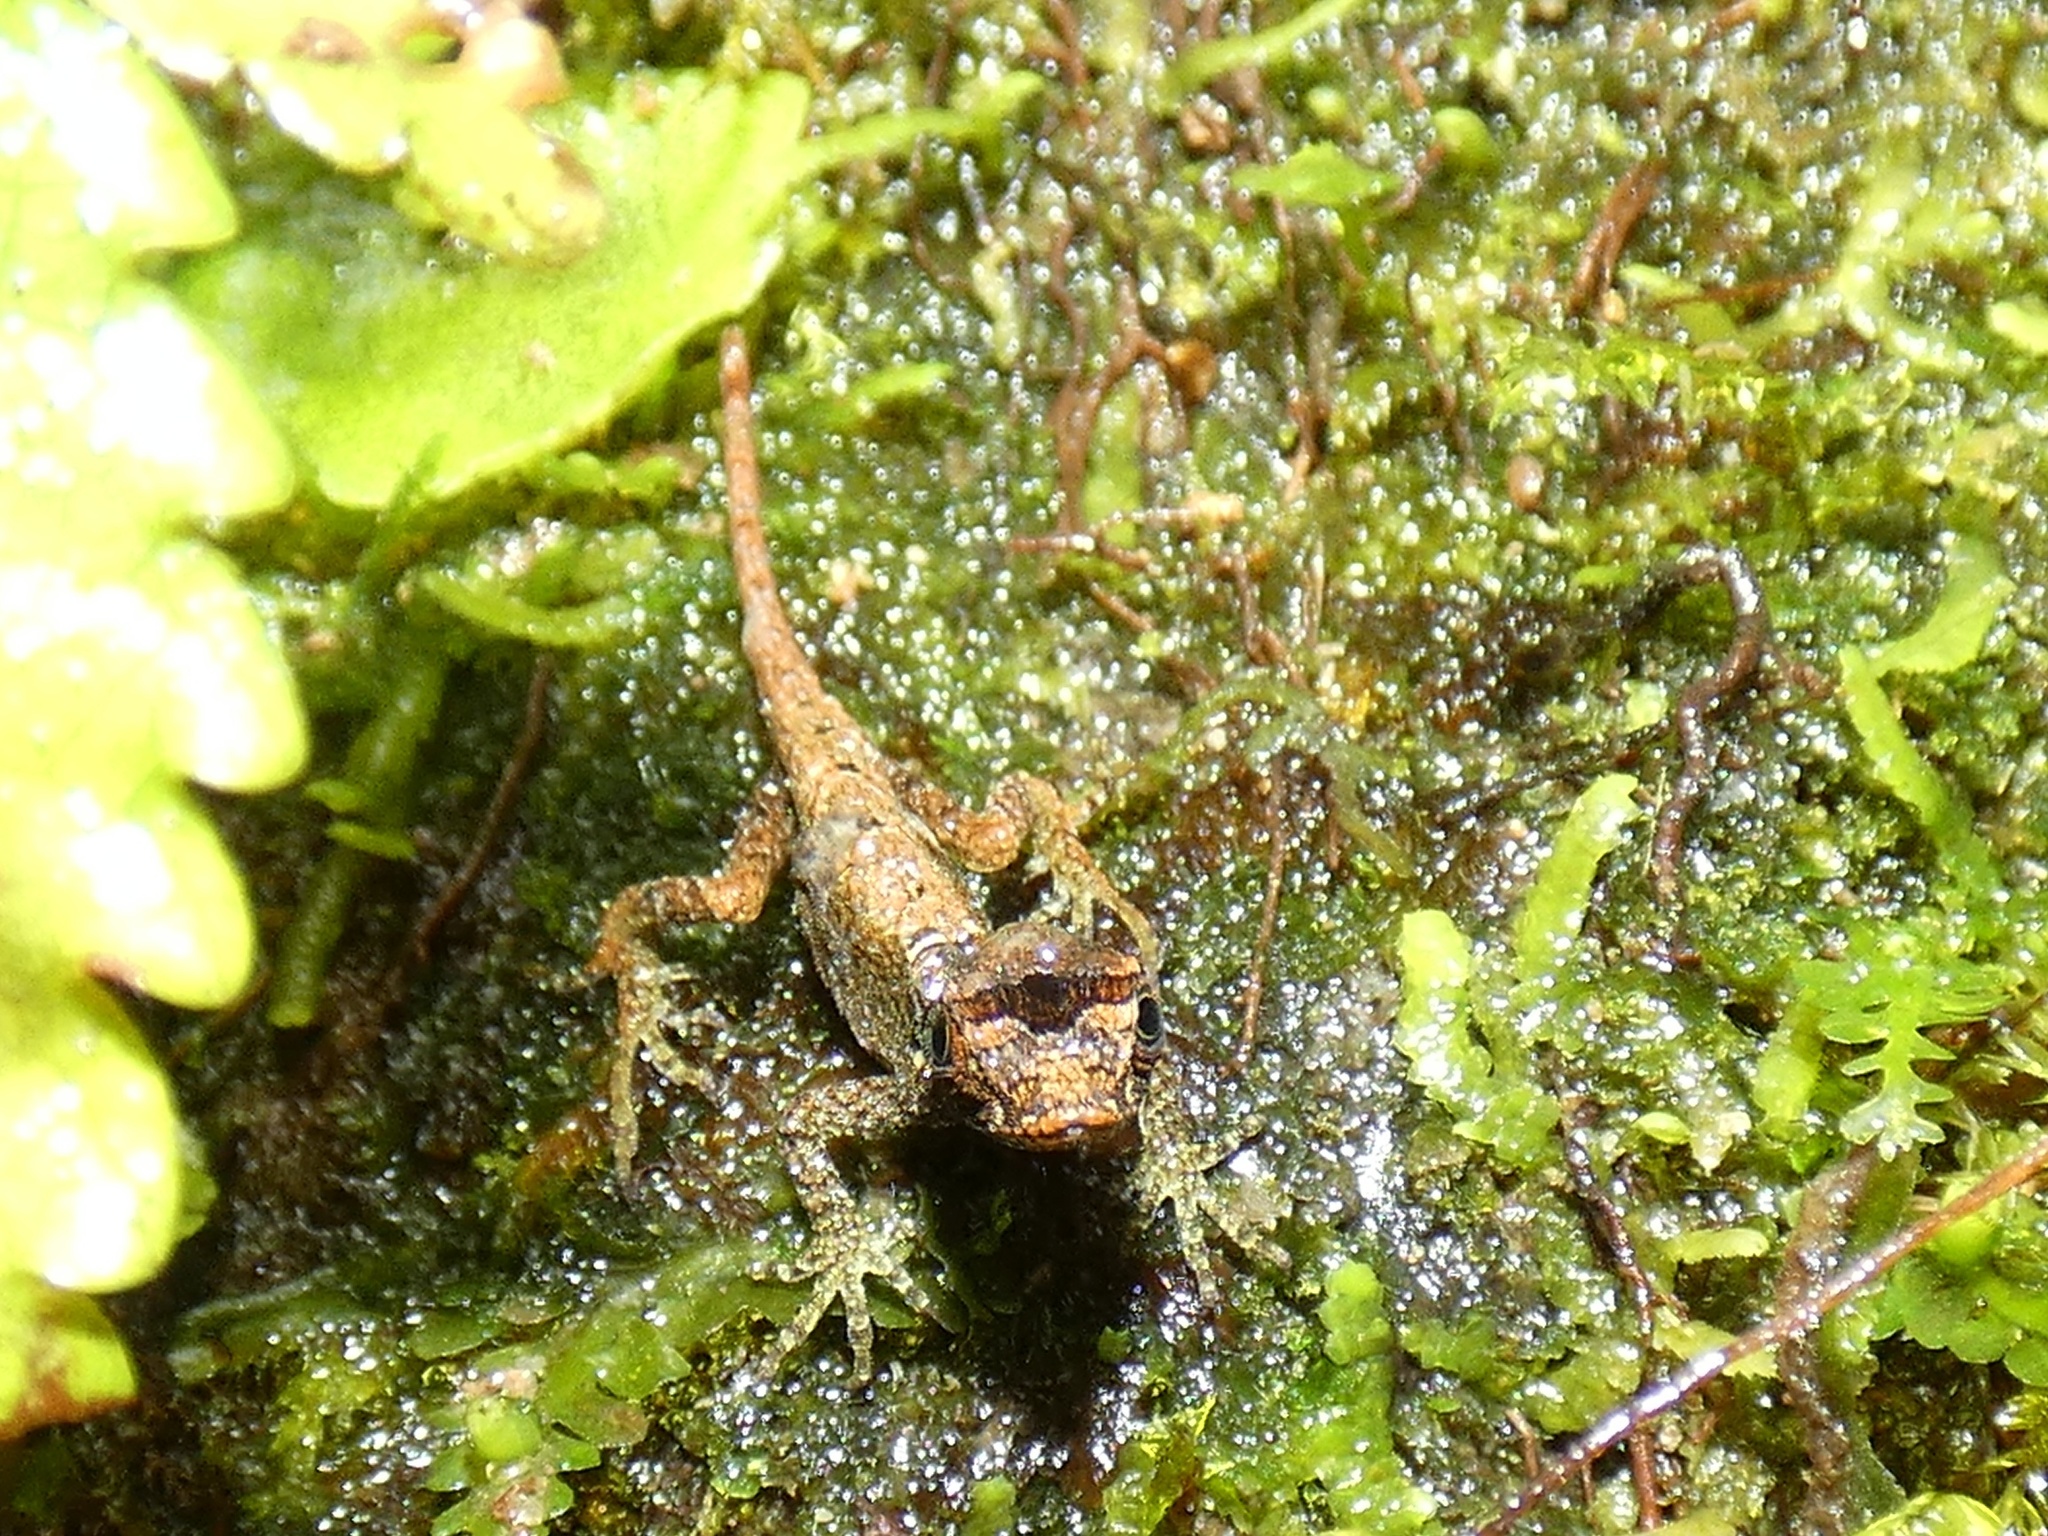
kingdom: Animalia
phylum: Chordata
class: Squamata
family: Dactyloidae
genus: Anolis
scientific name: Anolis capito
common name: Bighead anole
